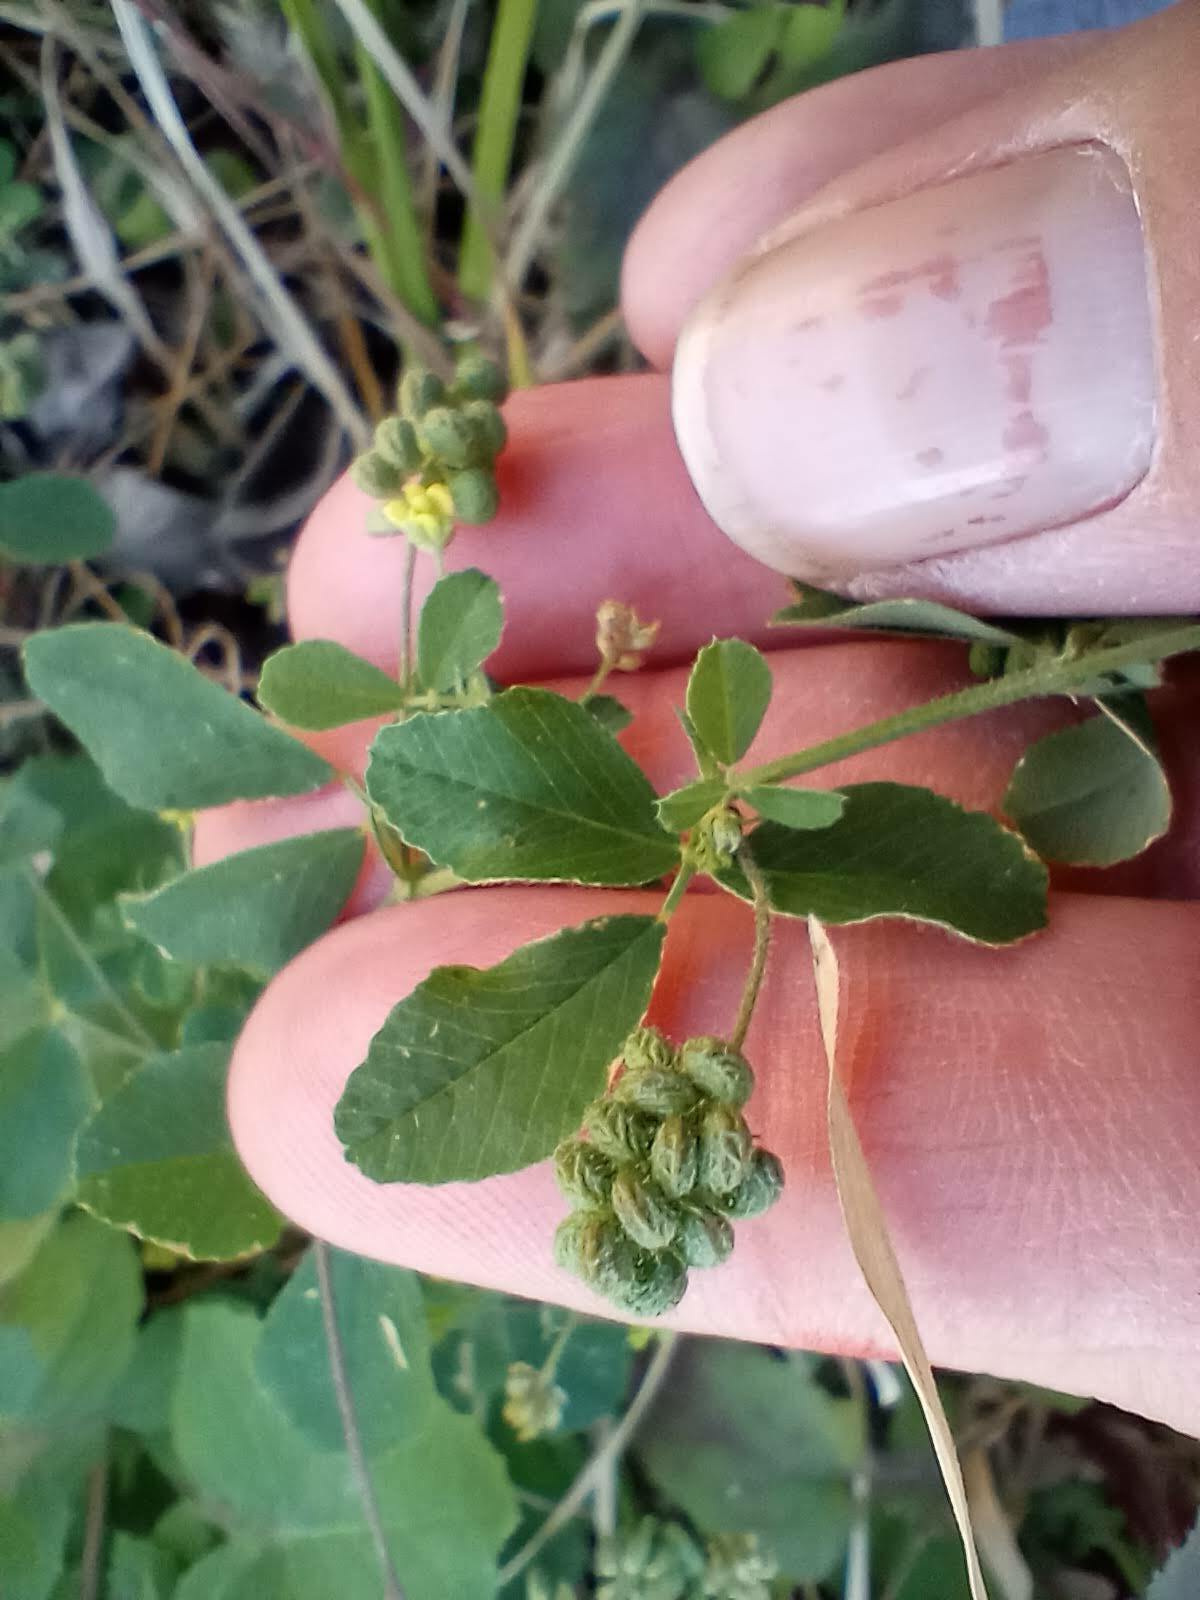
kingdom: Plantae
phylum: Tracheophyta
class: Magnoliopsida
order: Fabales
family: Fabaceae
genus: Medicago
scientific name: Medicago lupulina
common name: Black medick
